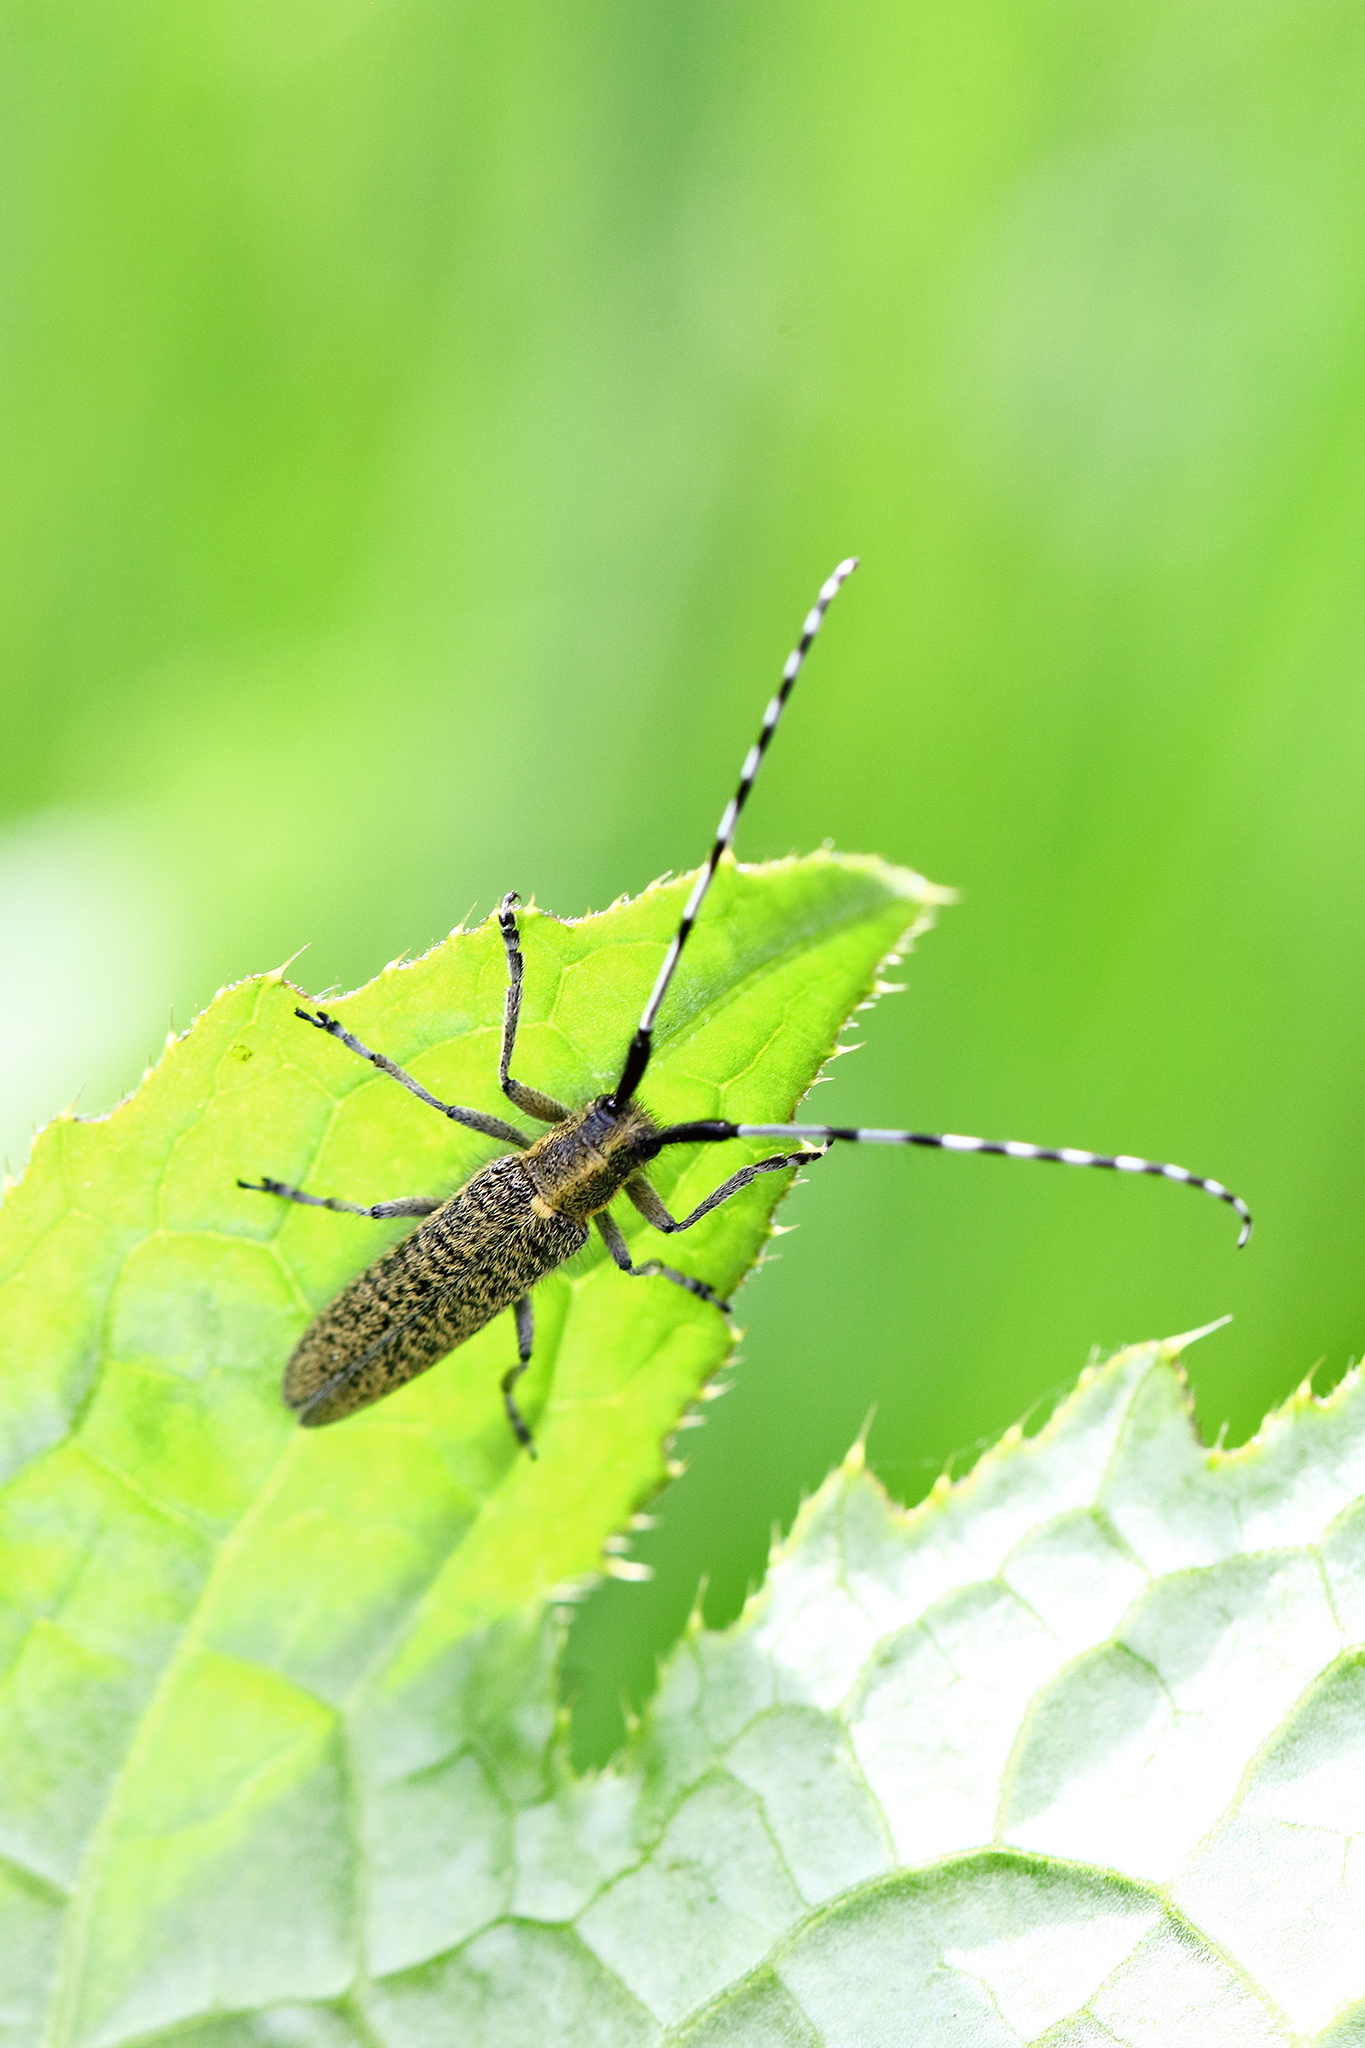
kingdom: Animalia
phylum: Arthropoda
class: Insecta
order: Coleoptera
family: Cerambycidae
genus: Agapanthia
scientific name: Agapanthia villosoviridescens
